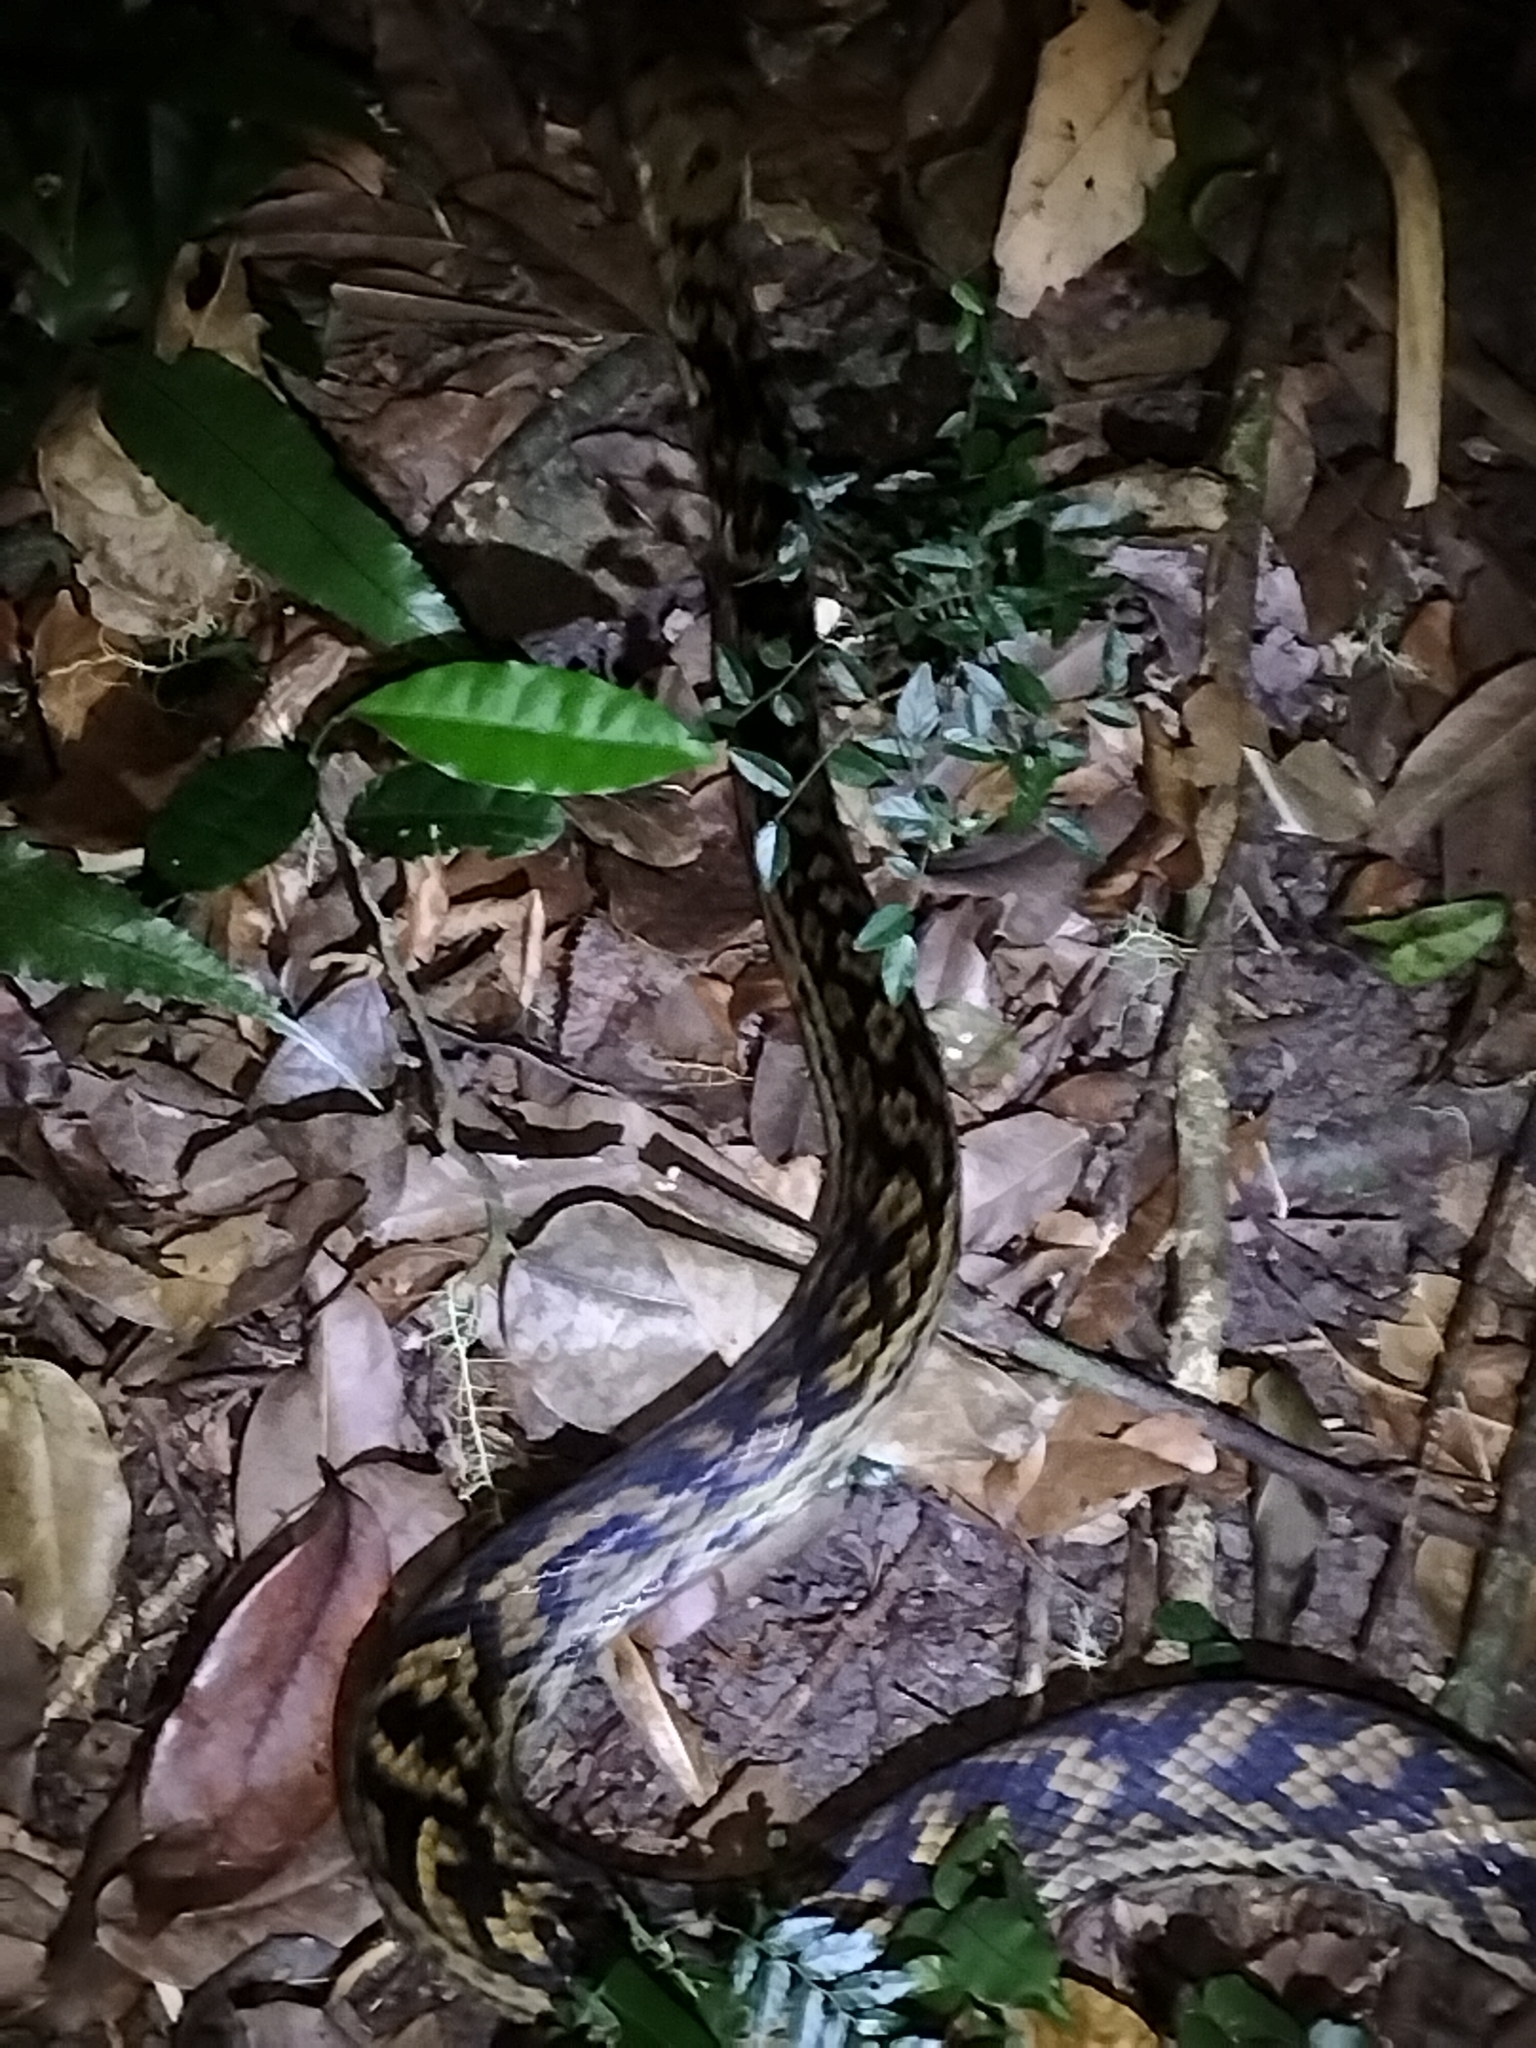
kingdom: Animalia
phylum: Chordata
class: Squamata
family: Pythonidae
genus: Simalia
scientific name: Simalia kinghorni
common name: Scrub python
